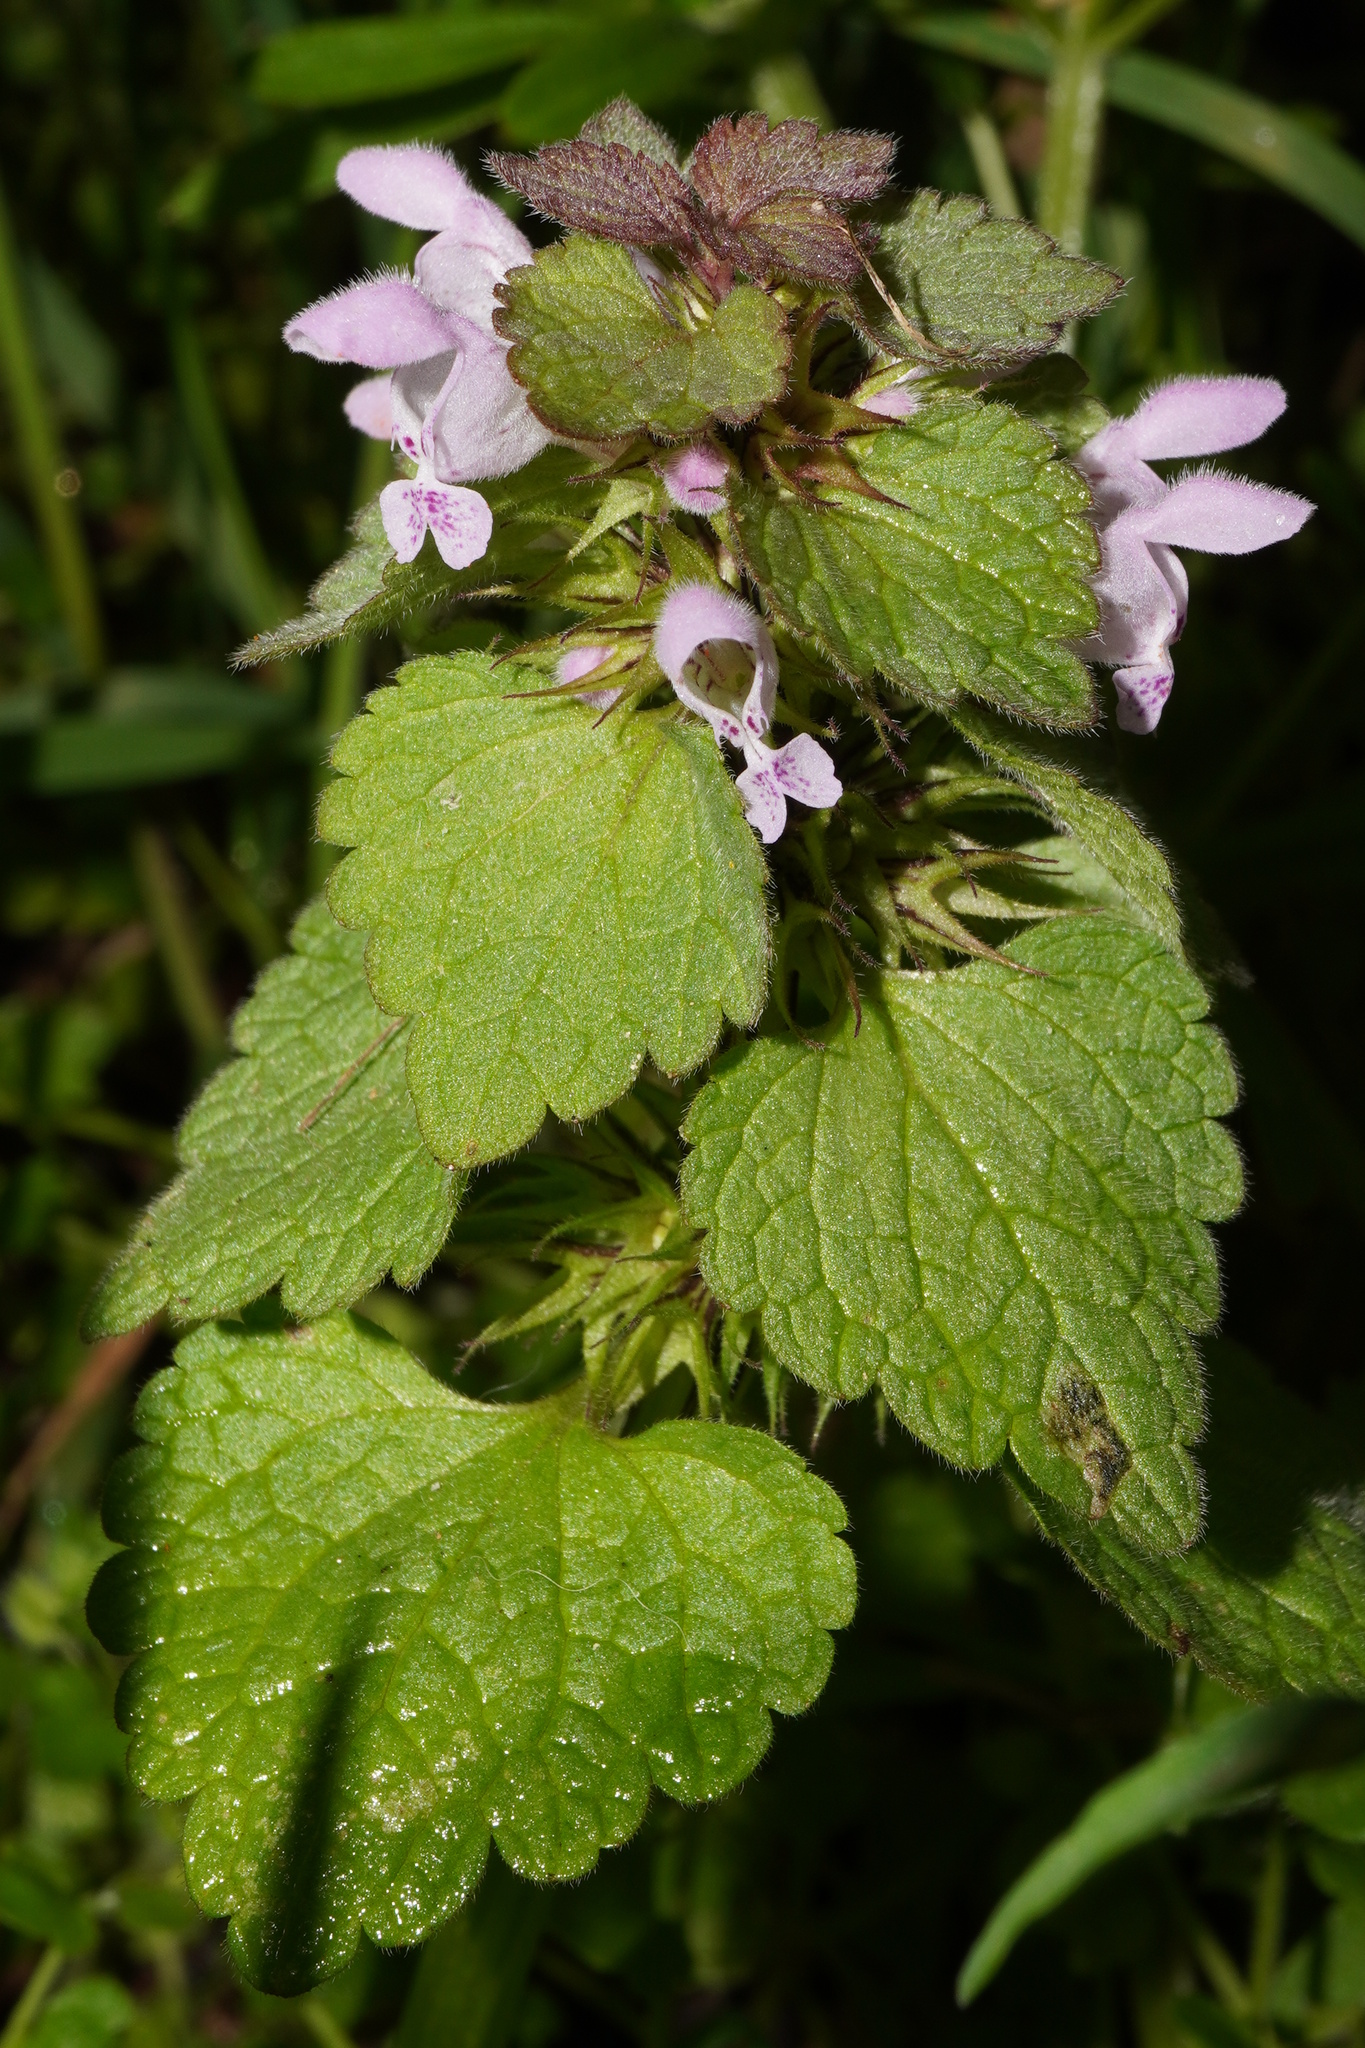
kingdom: Plantae
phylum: Tracheophyta
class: Magnoliopsida
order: Lamiales
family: Lamiaceae
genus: Lamium
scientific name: Lamium purpureum
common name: Red dead-nettle
